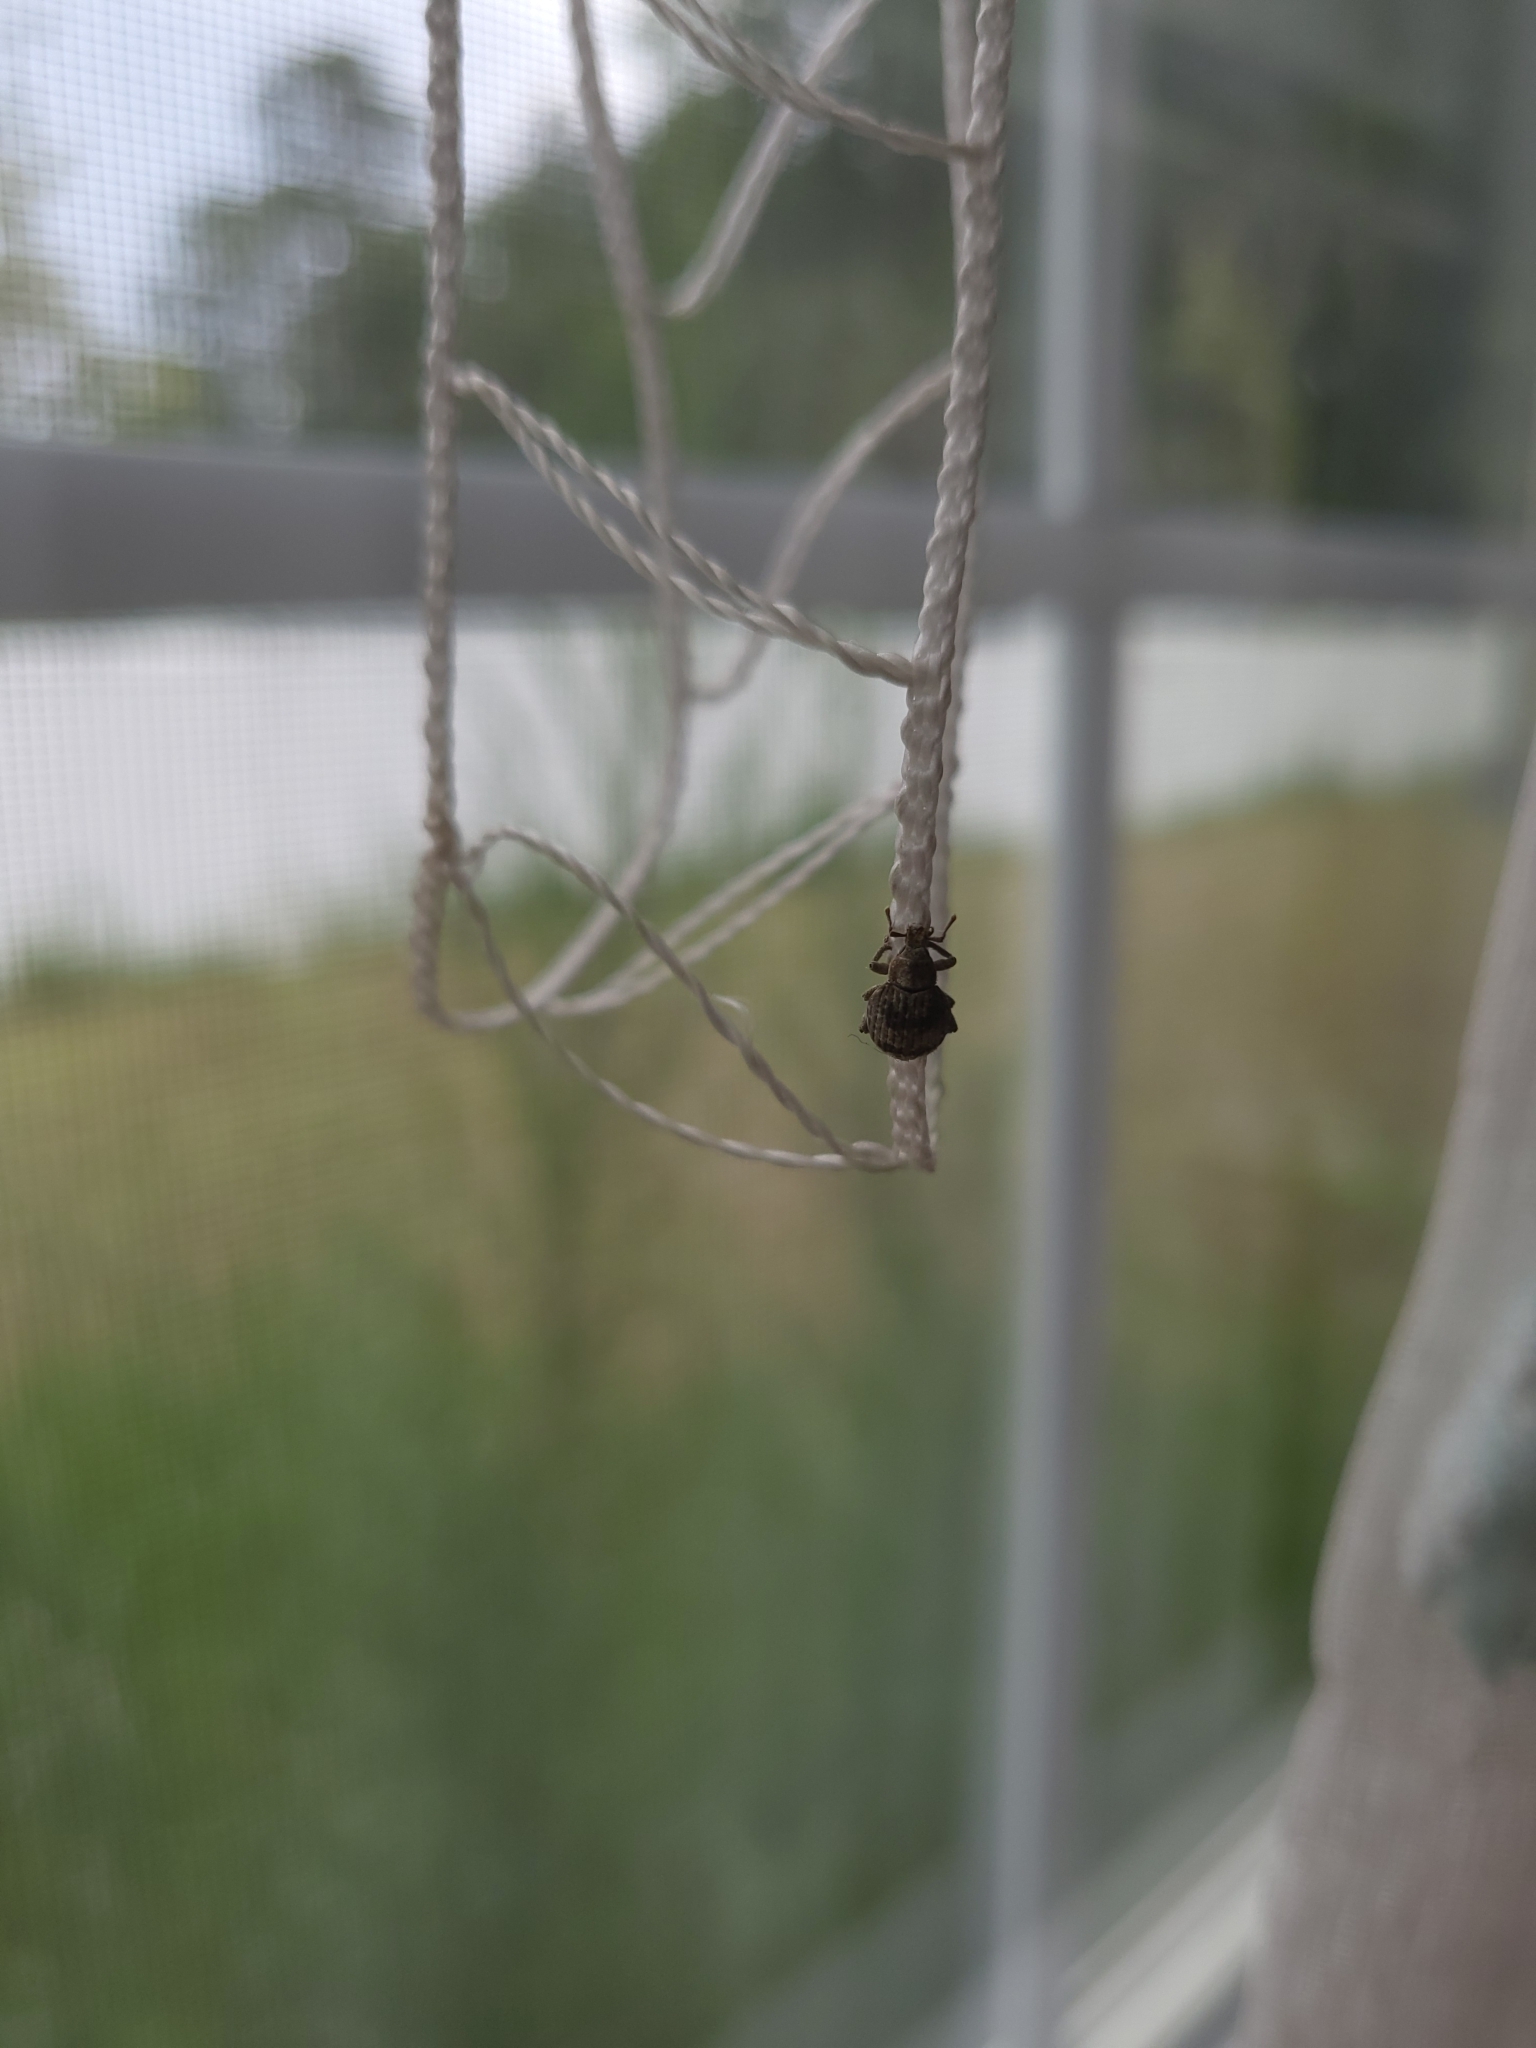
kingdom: Animalia
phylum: Arthropoda
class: Insecta
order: Coleoptera
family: Curculionidae
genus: Pseudocneorhinus
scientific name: Pseudocneorhinus bifasciatus
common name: Two-banded japanese weevil
